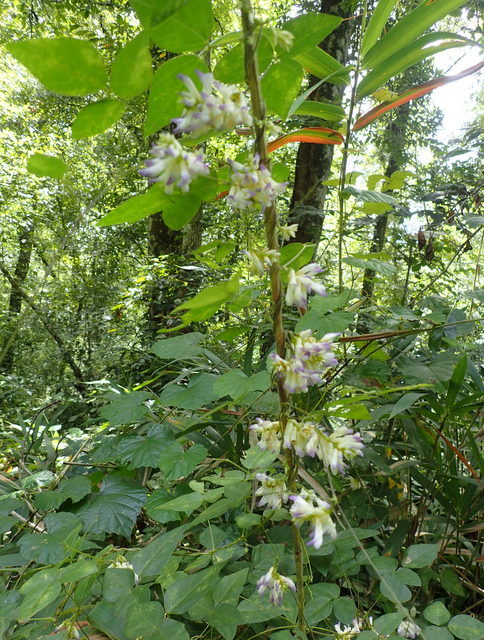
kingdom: Plantae
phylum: Tracheophyta
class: Magnoliopsida
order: Fabales
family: Fabaceae
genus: Amphicarpaea
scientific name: Amphicarpaea bracteata
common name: American hog peanut
